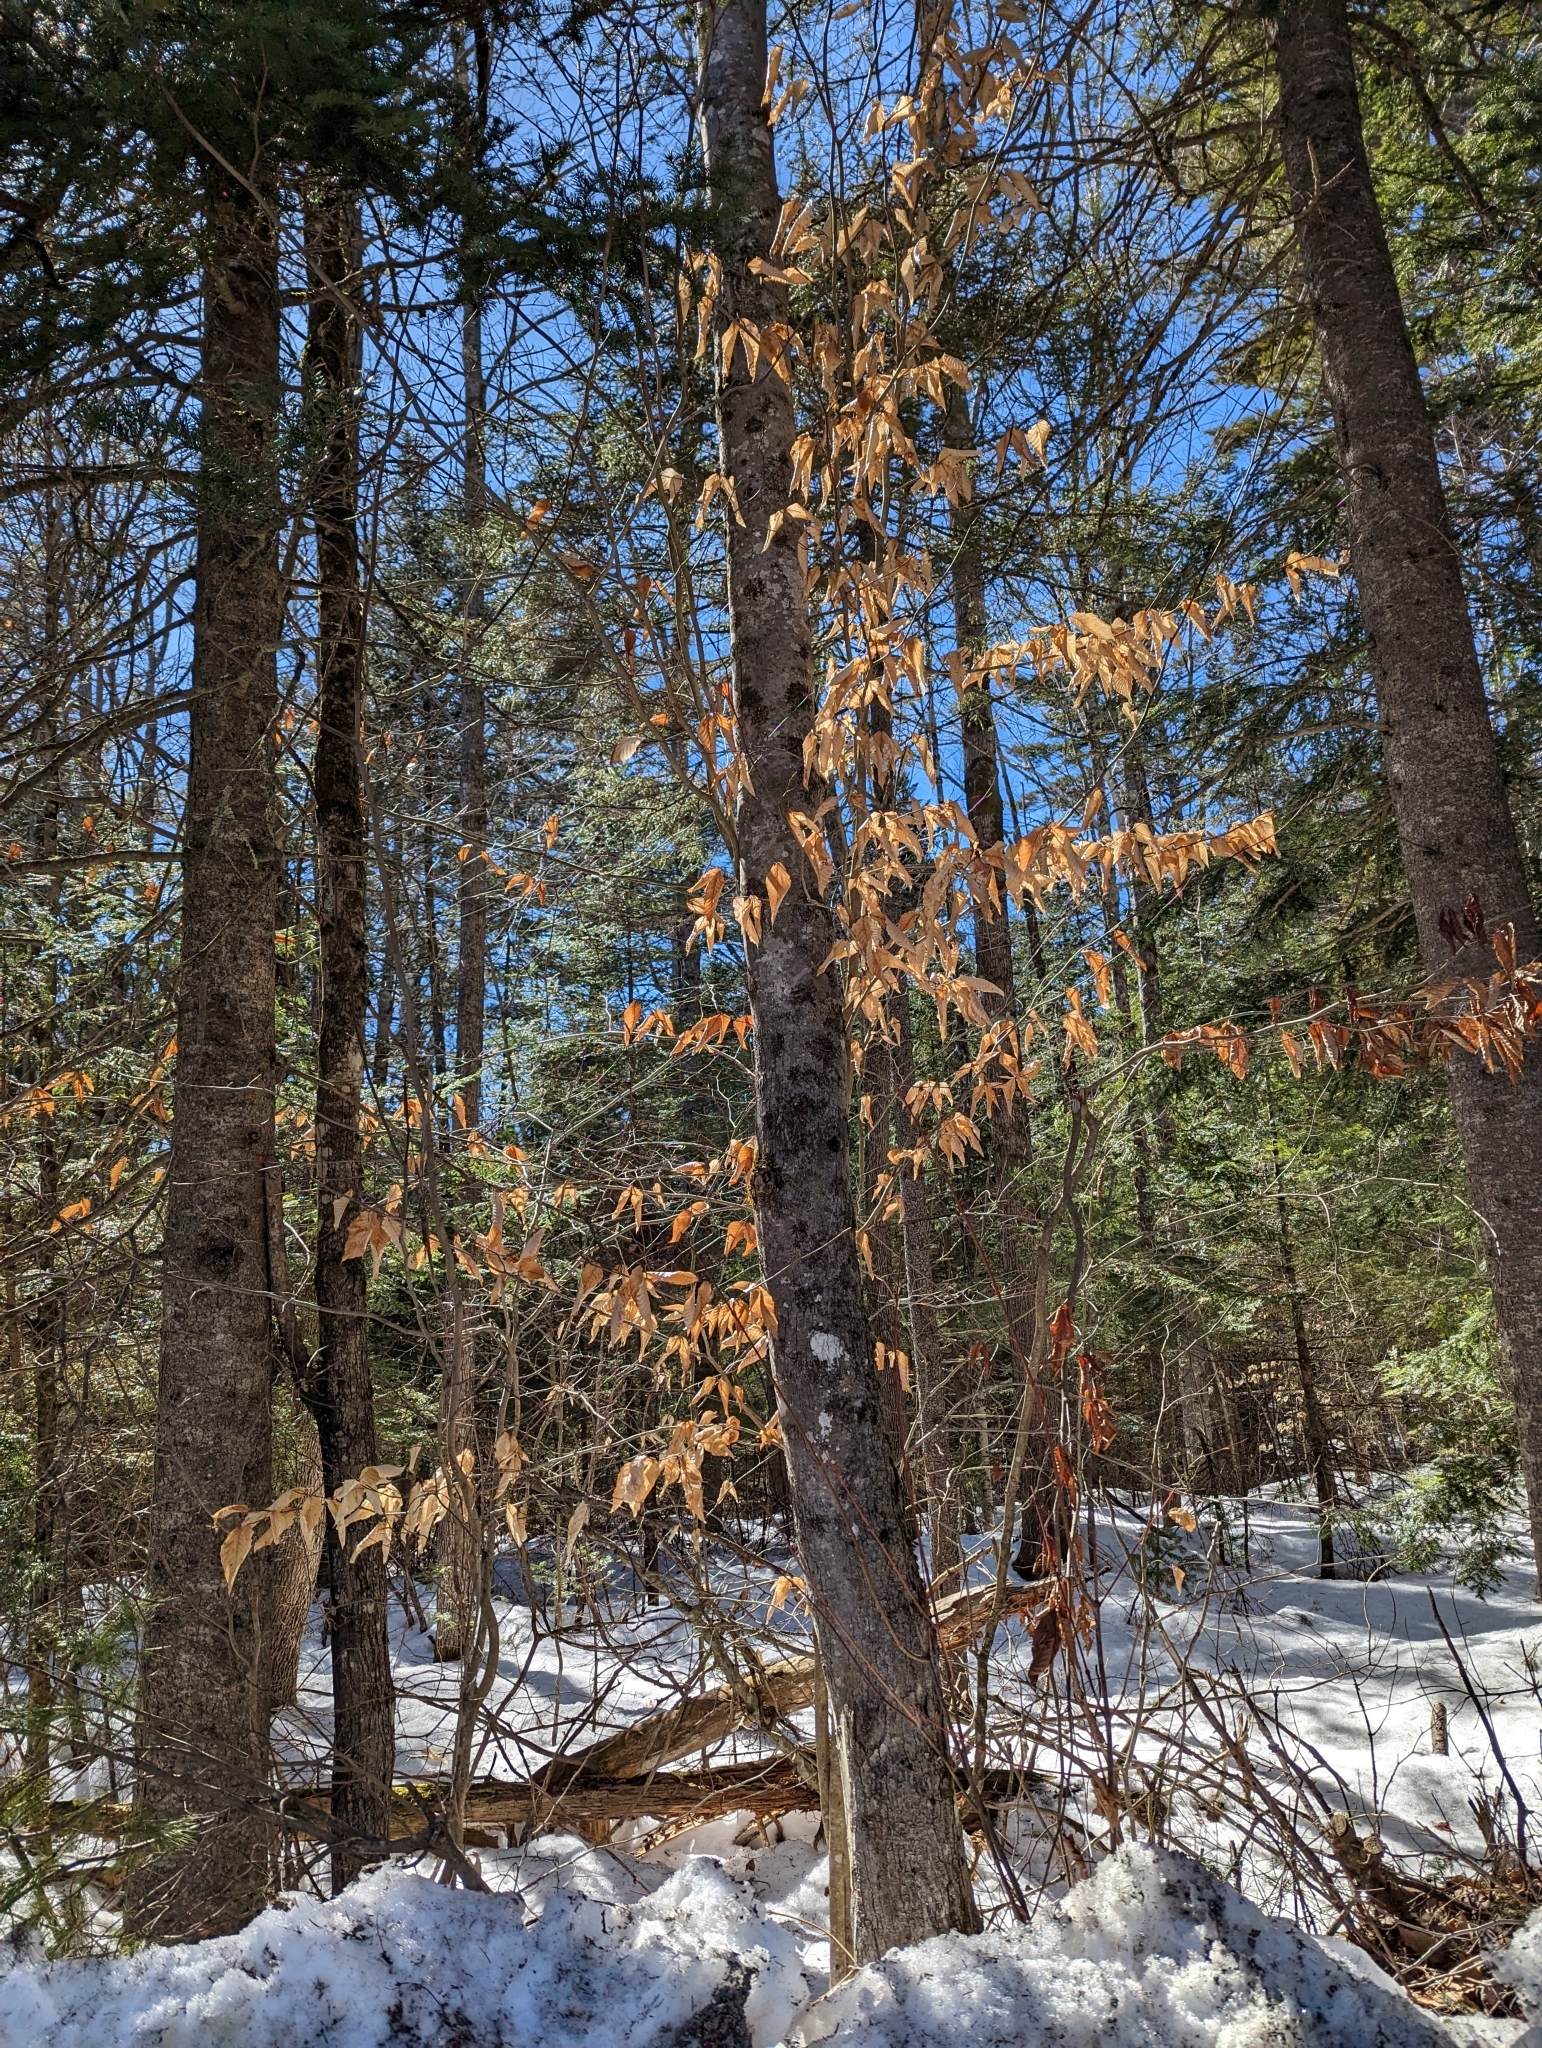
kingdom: Plantae
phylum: Tracheophyta
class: Magnoliopsida
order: Fagales
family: Fagaceae
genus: Fagus
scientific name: Fagus grandifolia
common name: American beech
